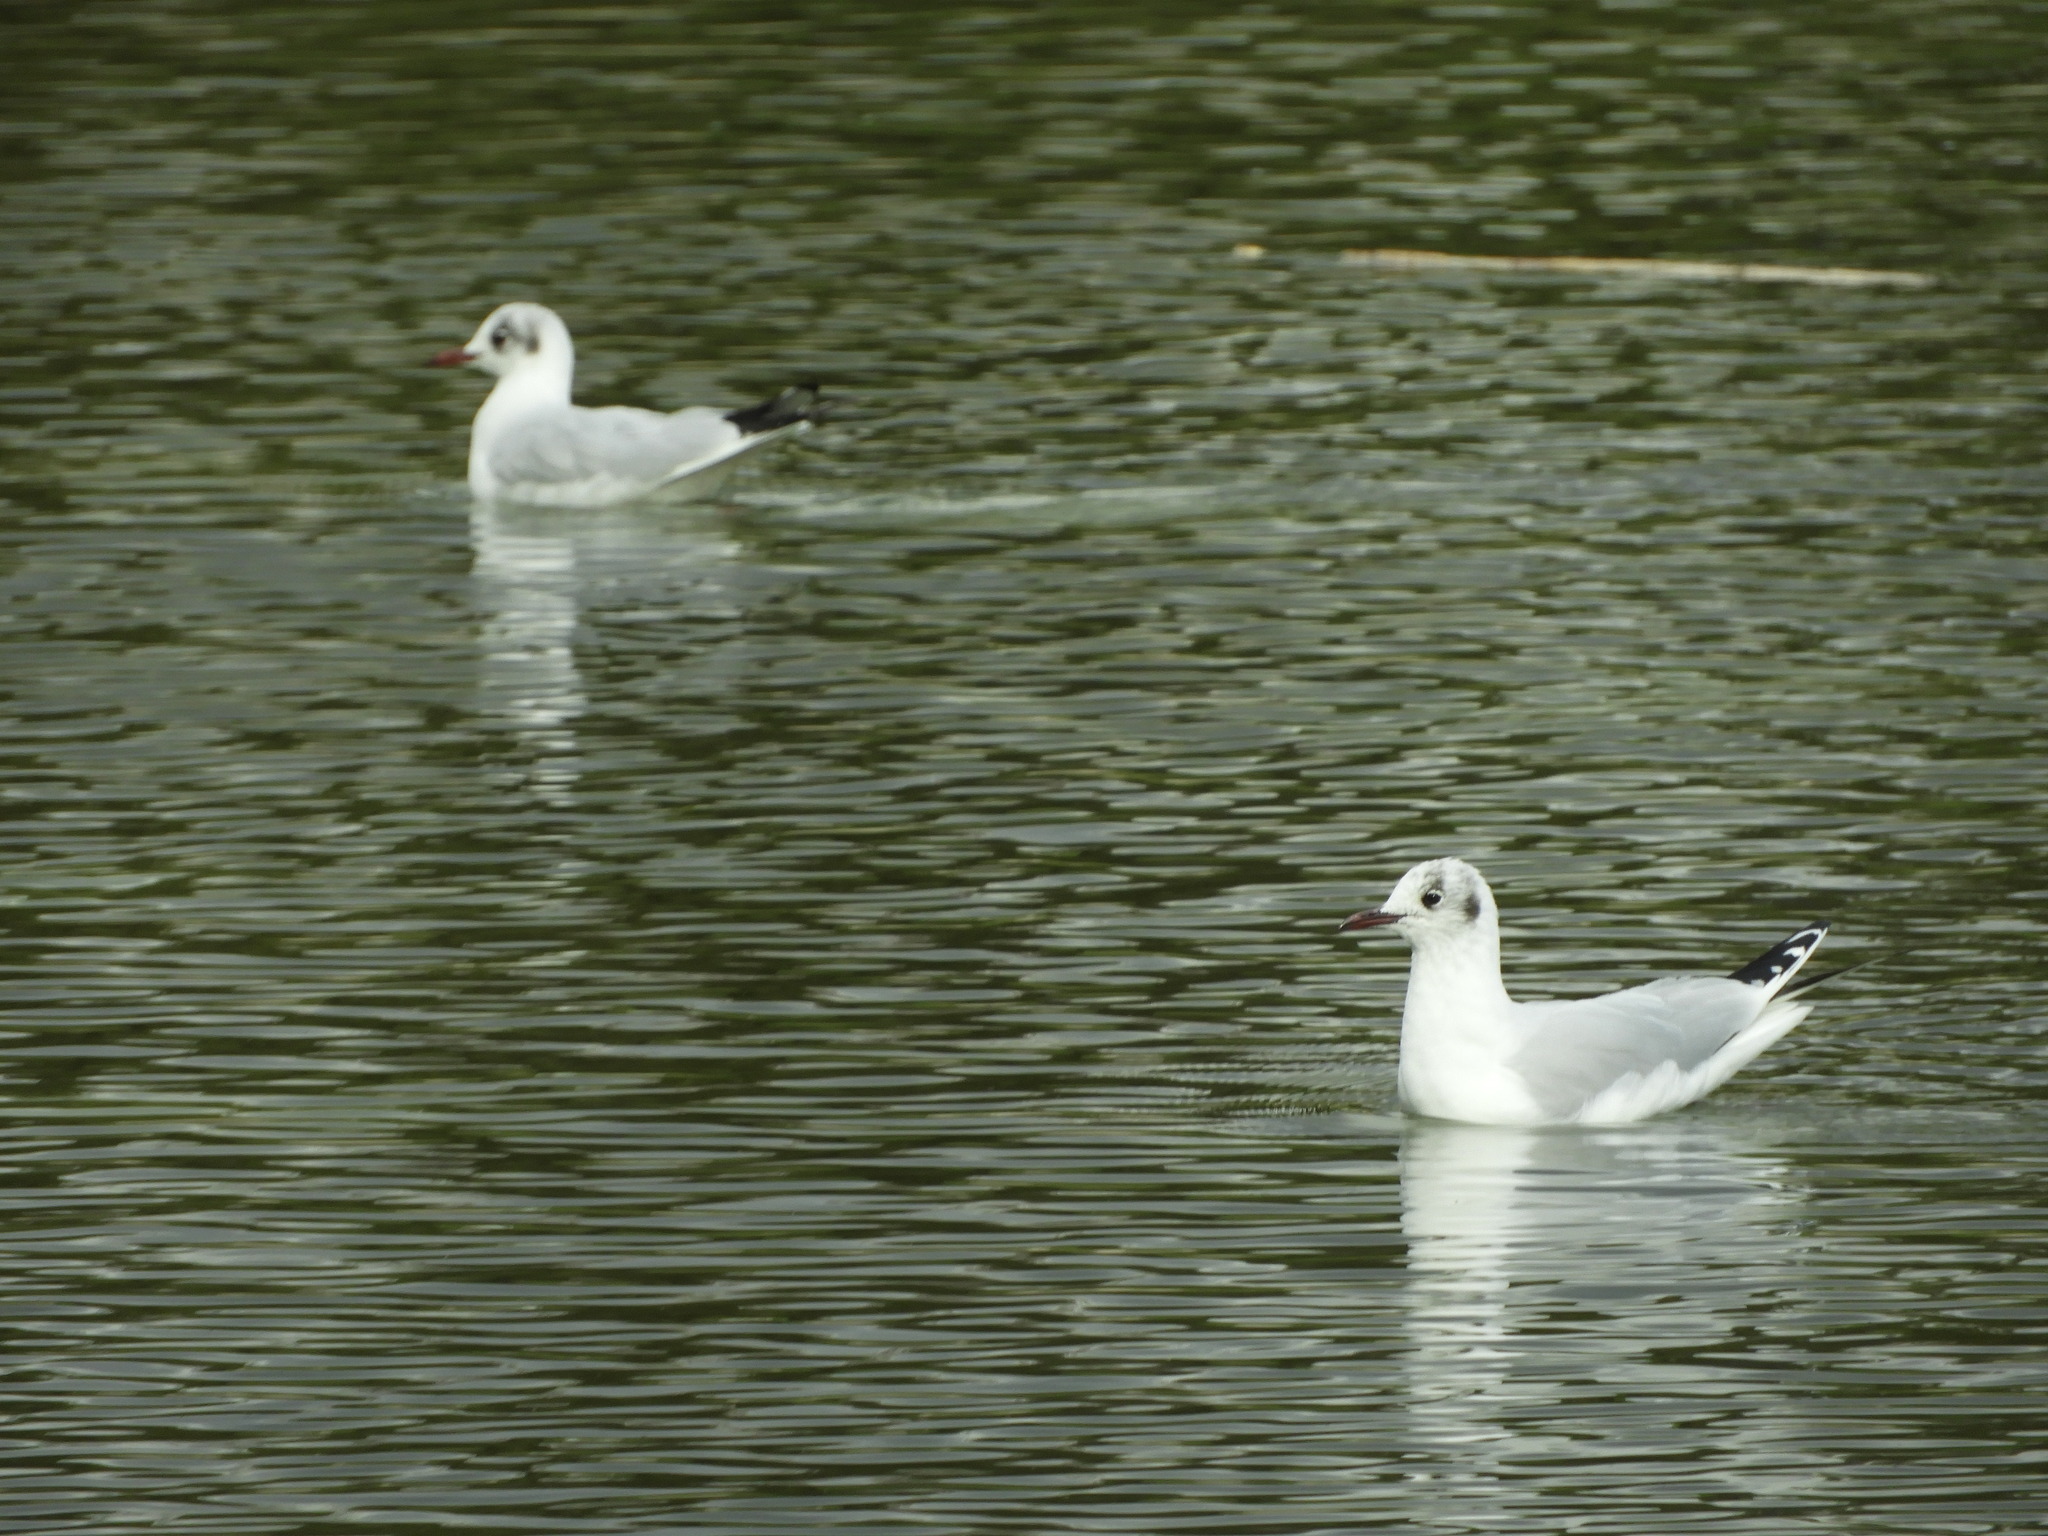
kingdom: Animalia
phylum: Chordata
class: Aves
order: Charadriiformes
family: Laridae
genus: Chroicocephalus
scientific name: Chroicocephalus ridibundus
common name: Black-headed gull
